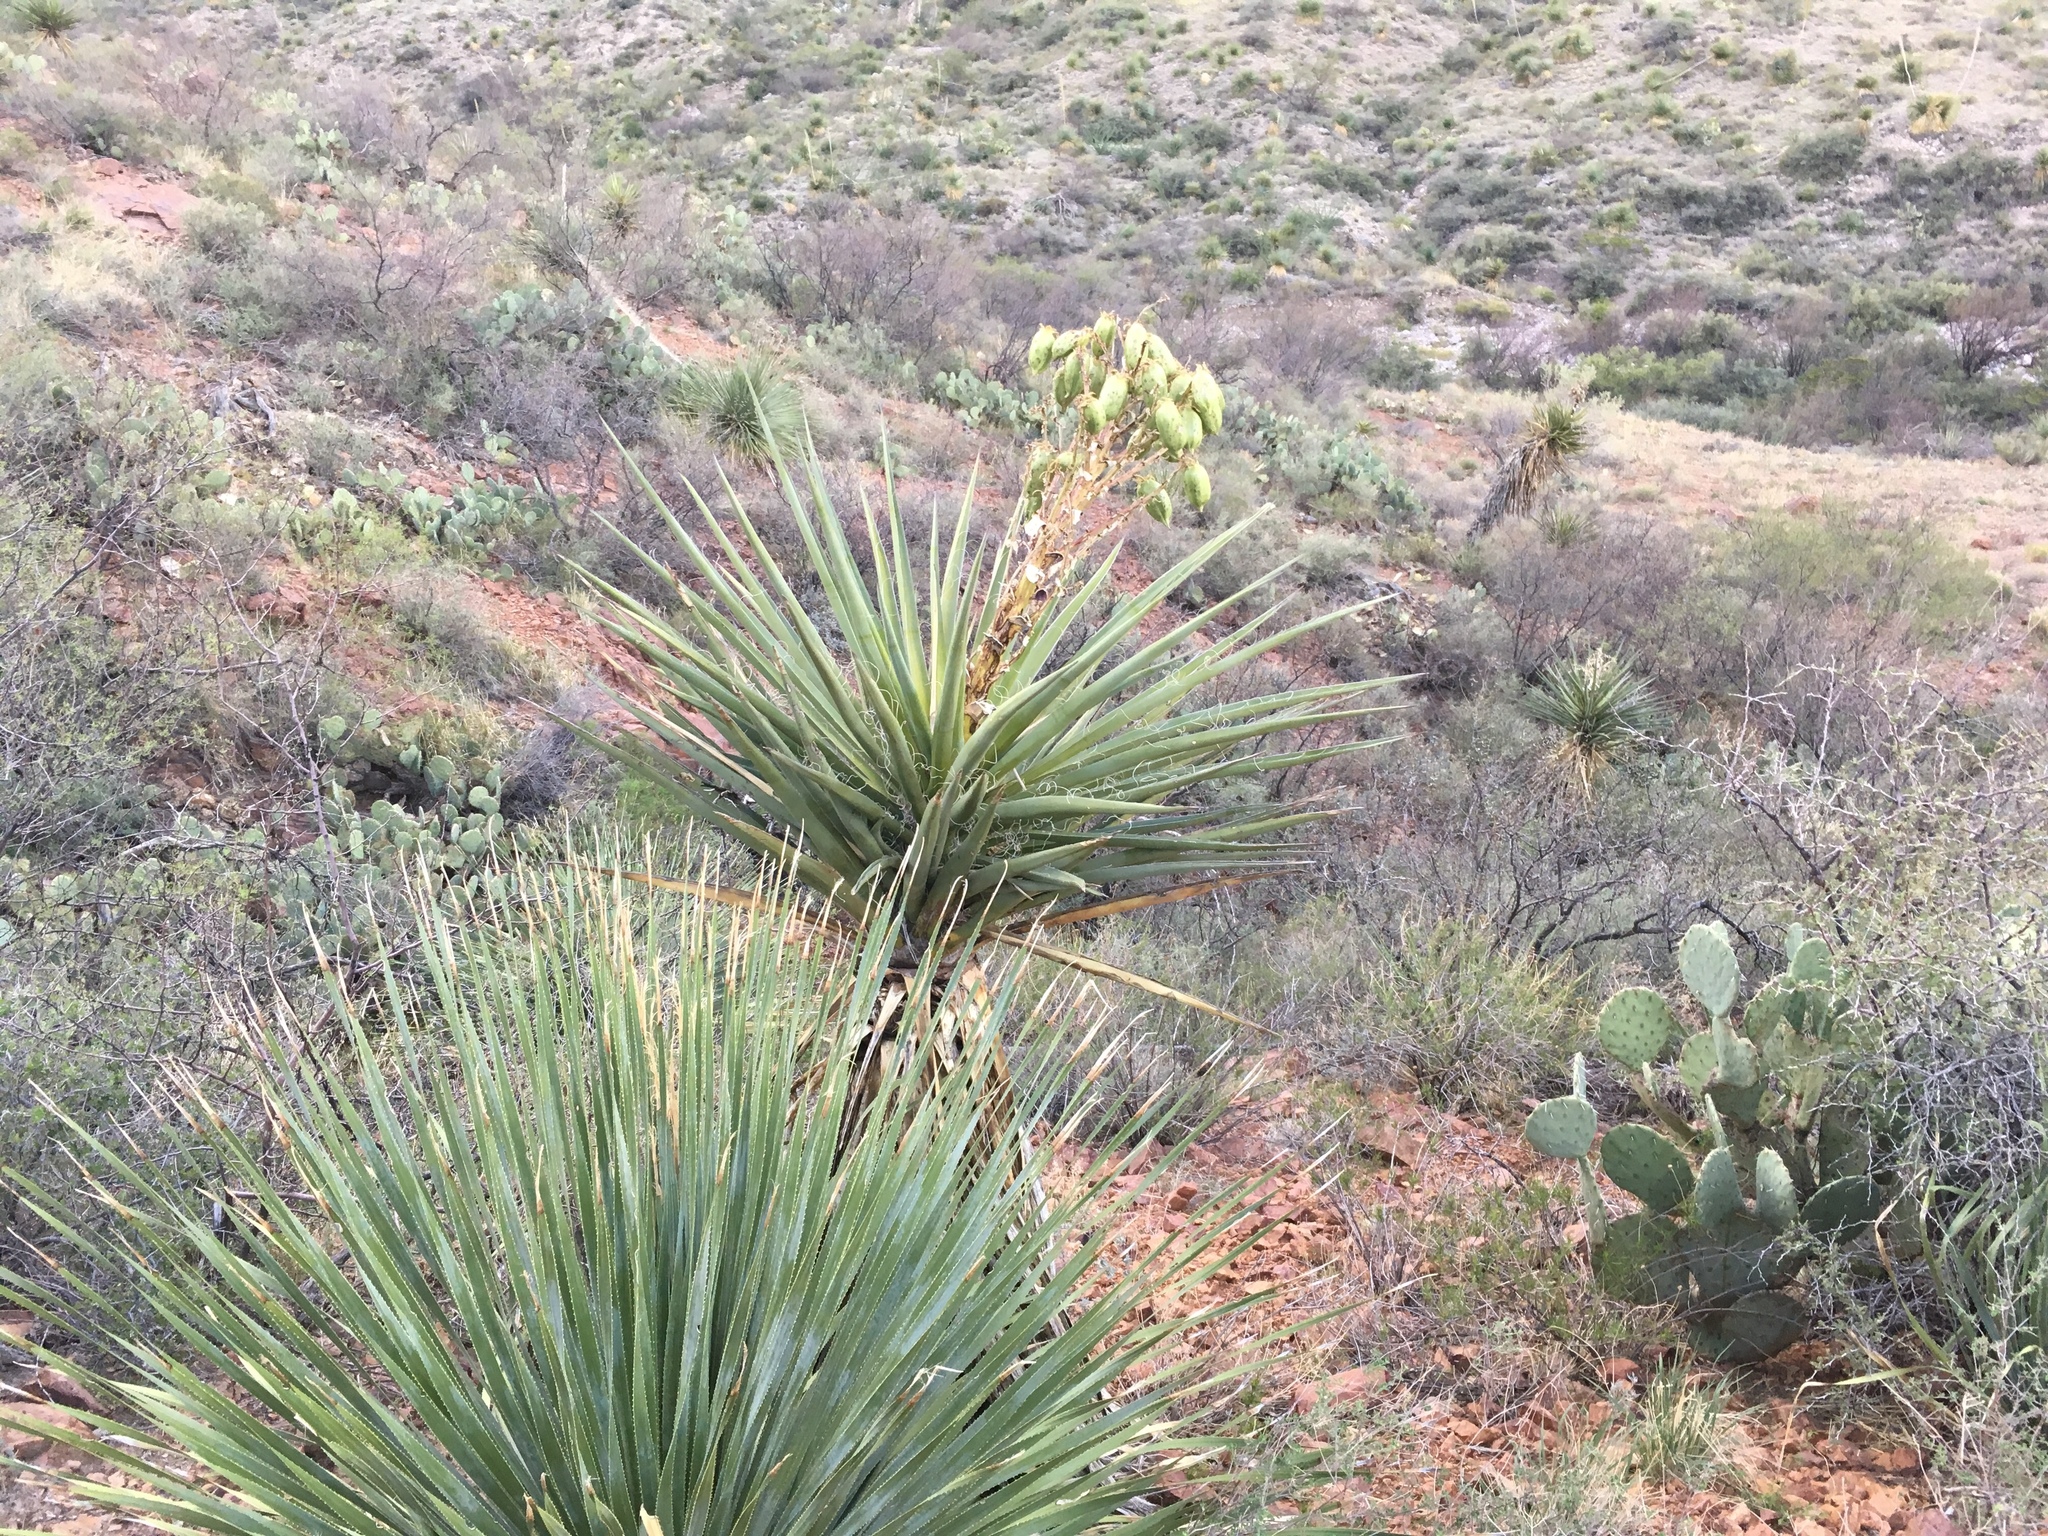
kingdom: Plantae
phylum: Tracheophyta
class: Liliopsida
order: Asparagales
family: Asparagaceae
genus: Yucca
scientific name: Yucca baccata
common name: Banana yucca
